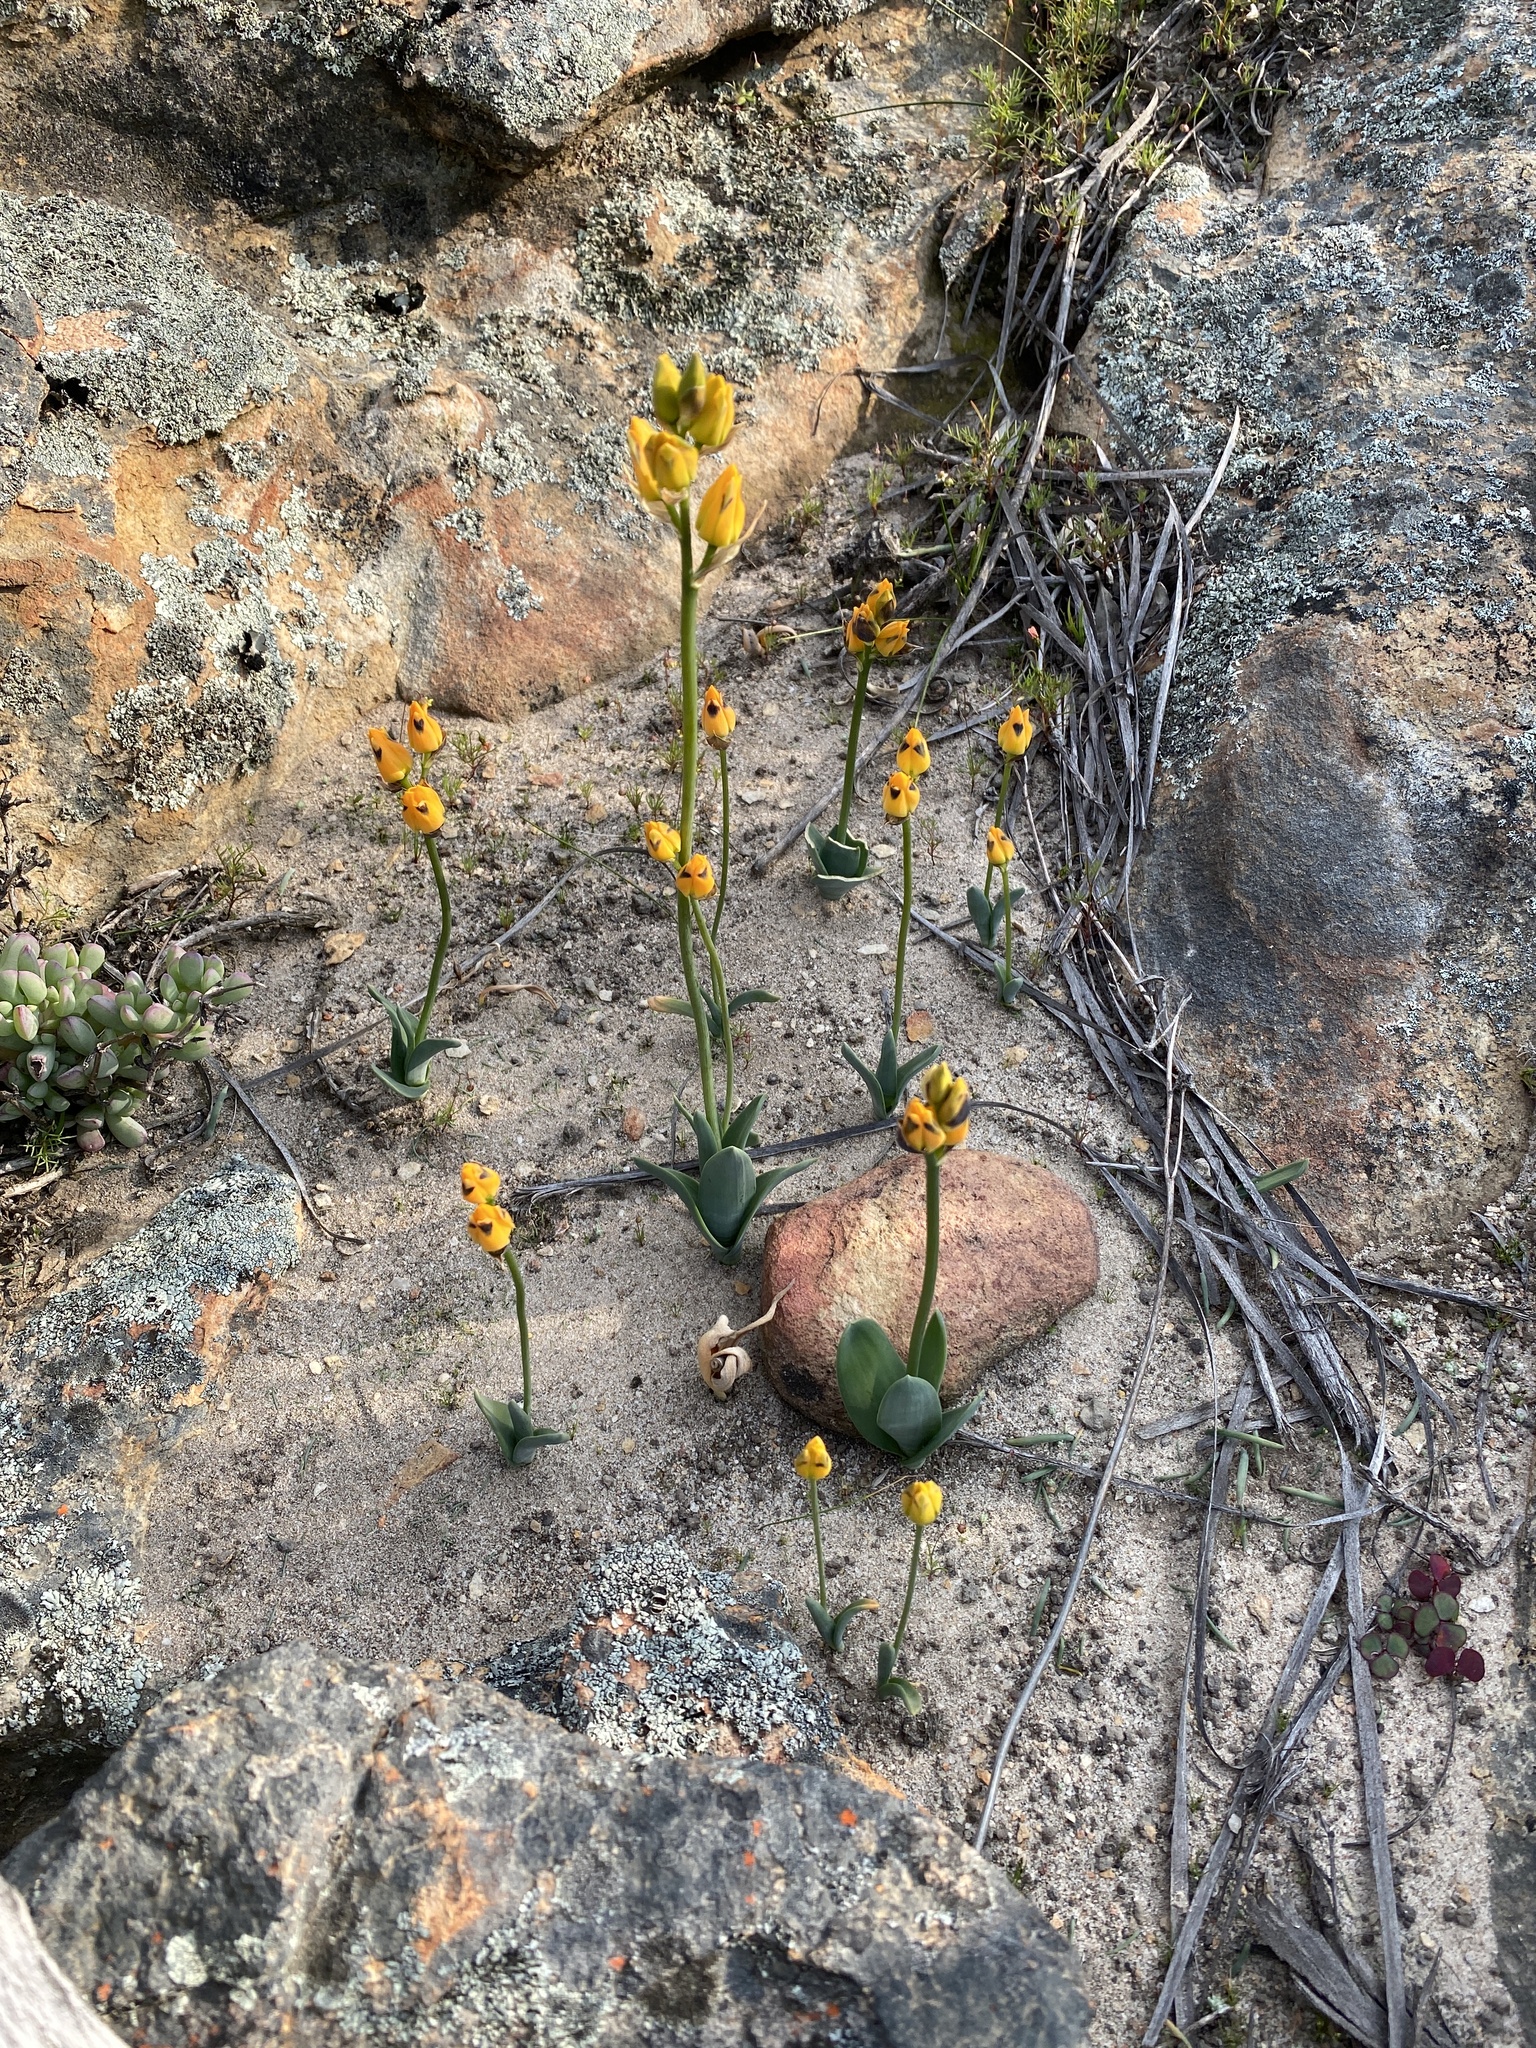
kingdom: Plantae
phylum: Tracheophyta
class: Liliopsida
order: Asparagales
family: Asparagaceae
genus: Ornithogalum
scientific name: Ornithogalum maculatum
